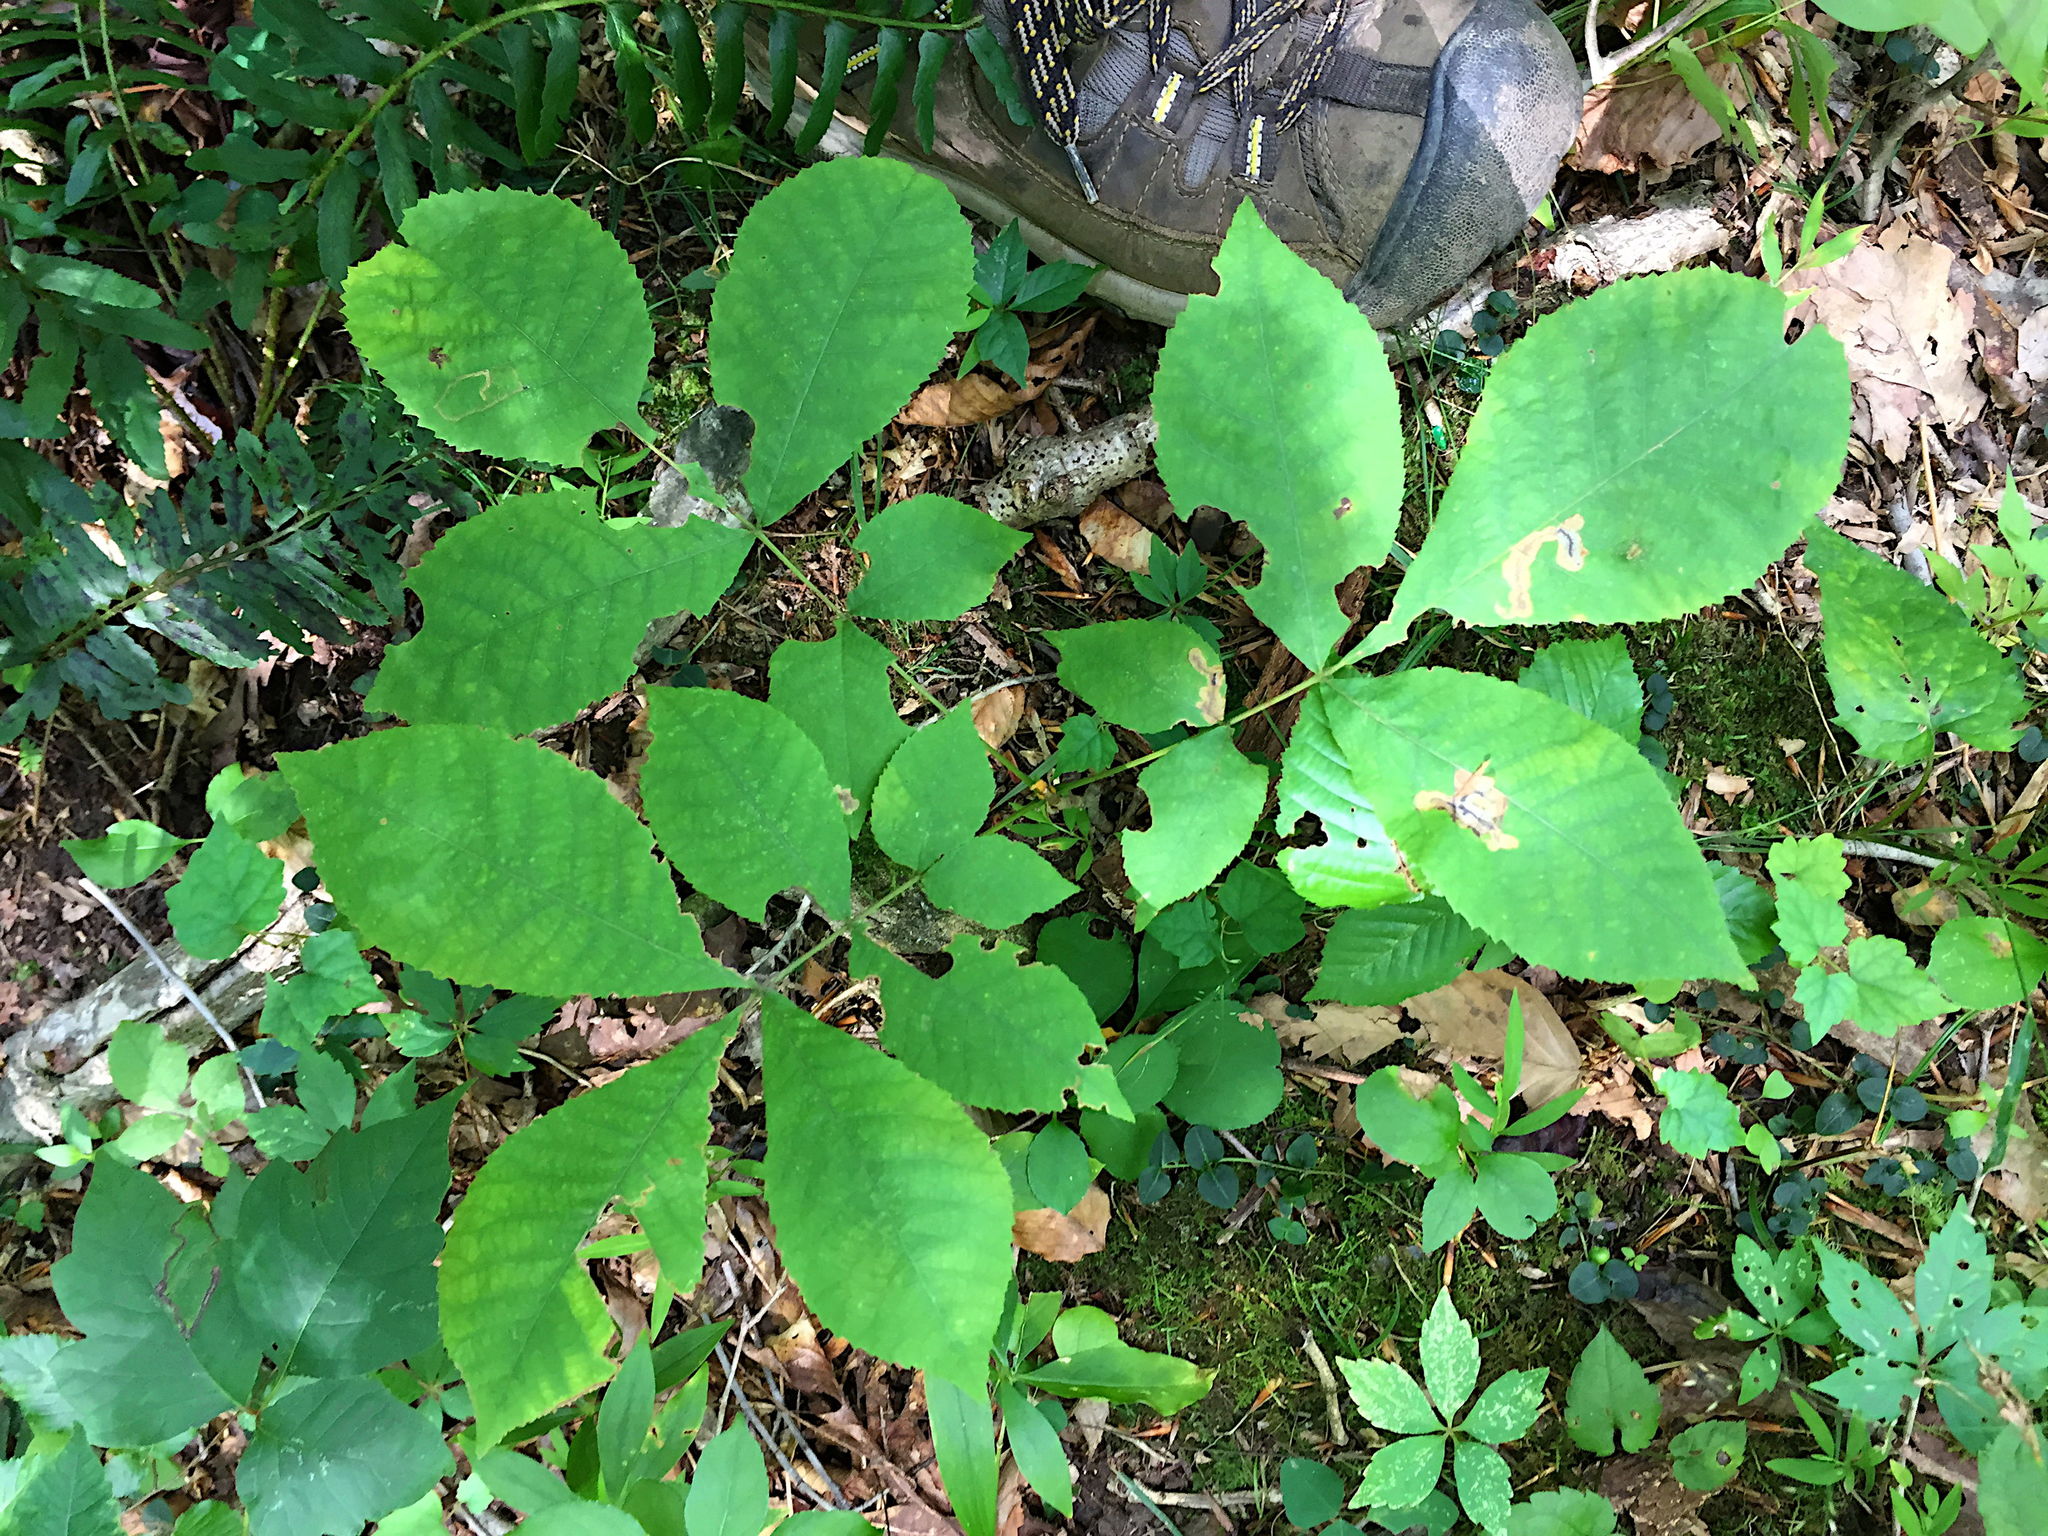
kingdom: Plantae
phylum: Tracheophyta
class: Magnoliopsida
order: Fagales
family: Juglandaceae
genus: Carya
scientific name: Carya cordiformis
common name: Bitternut hickory
